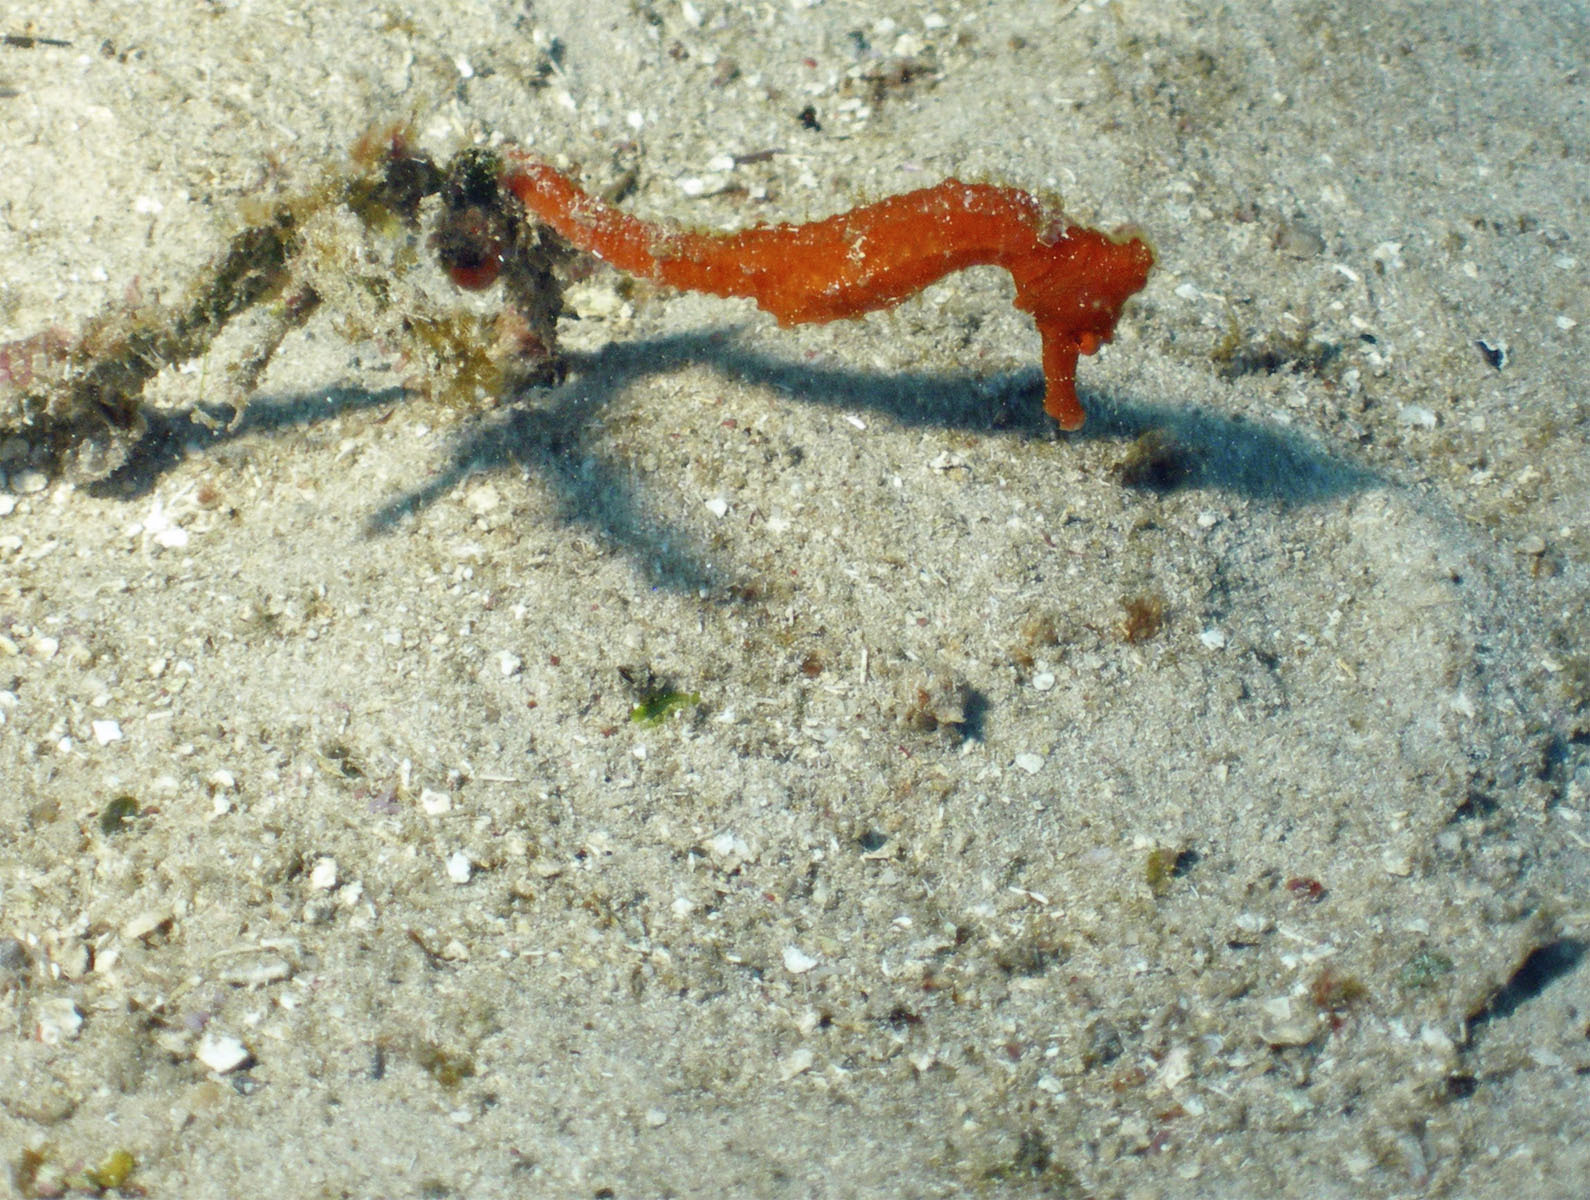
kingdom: Animalia
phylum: Chordata
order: Syngnathiformes
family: Syngnathidae
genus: Hippocampus
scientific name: Hippocampus reidi
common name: Slender seahorse
